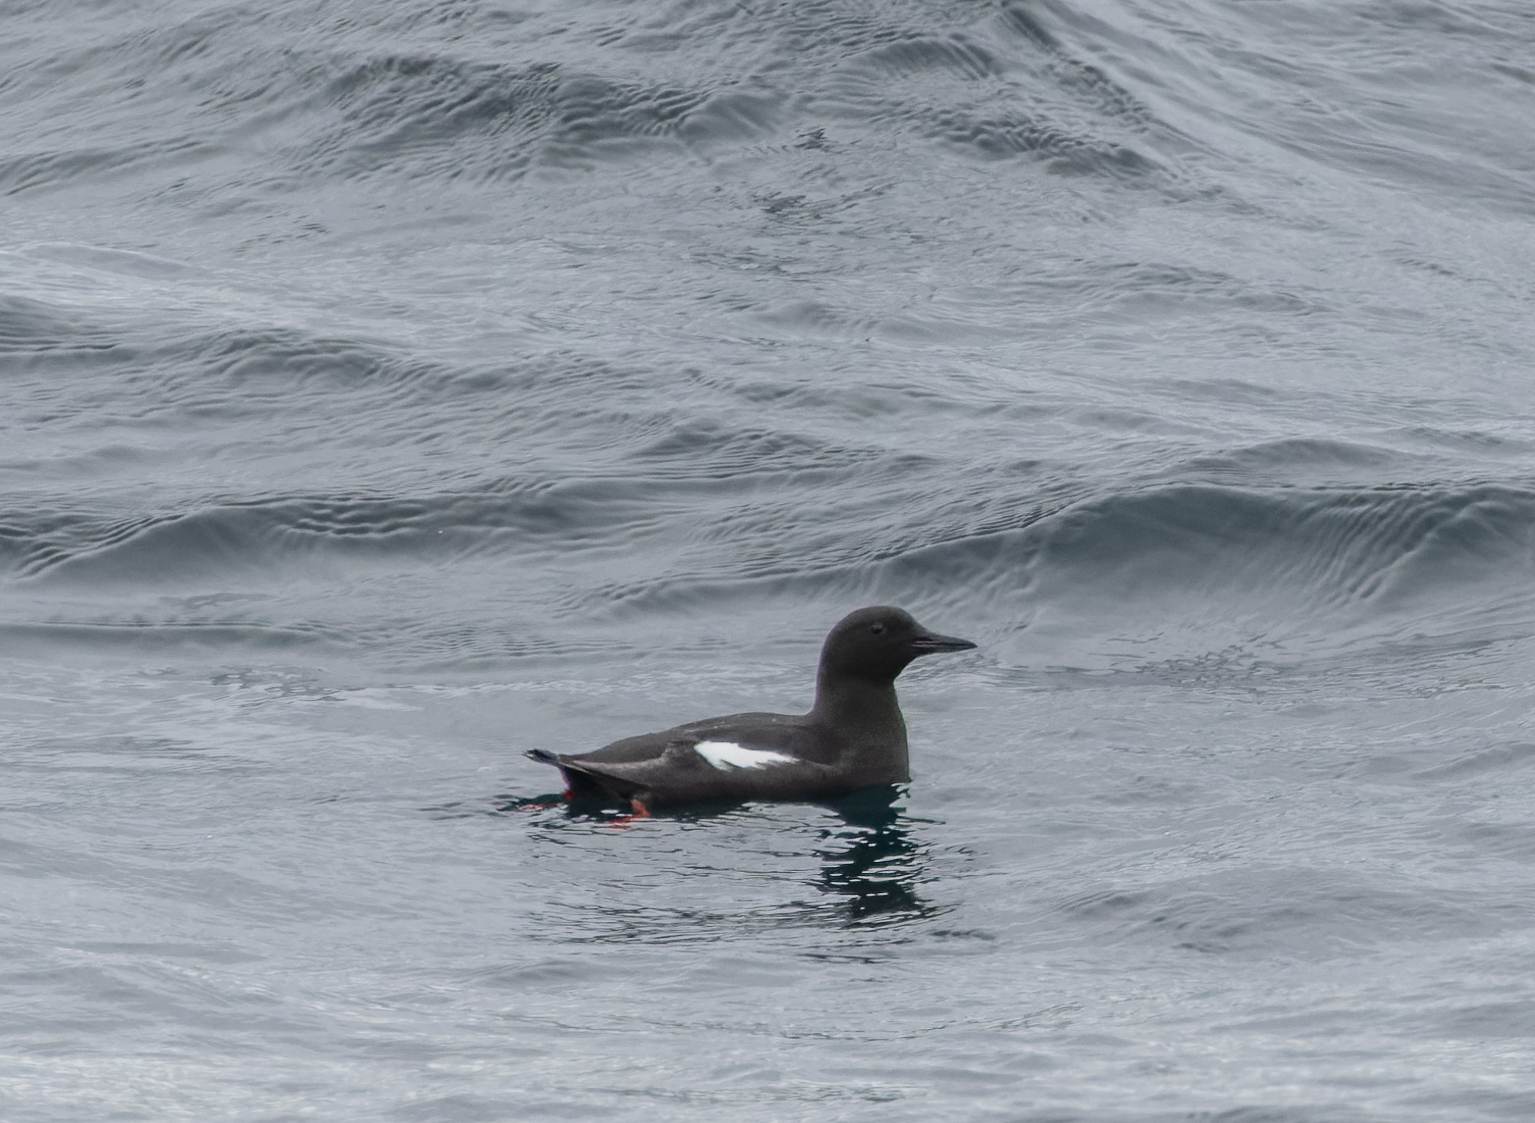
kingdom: Animalia
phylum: Chordata
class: Aves
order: Charadriiformes
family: Alcidae
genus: Cepphus
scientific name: Cepphus grylle
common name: Black guillemot
